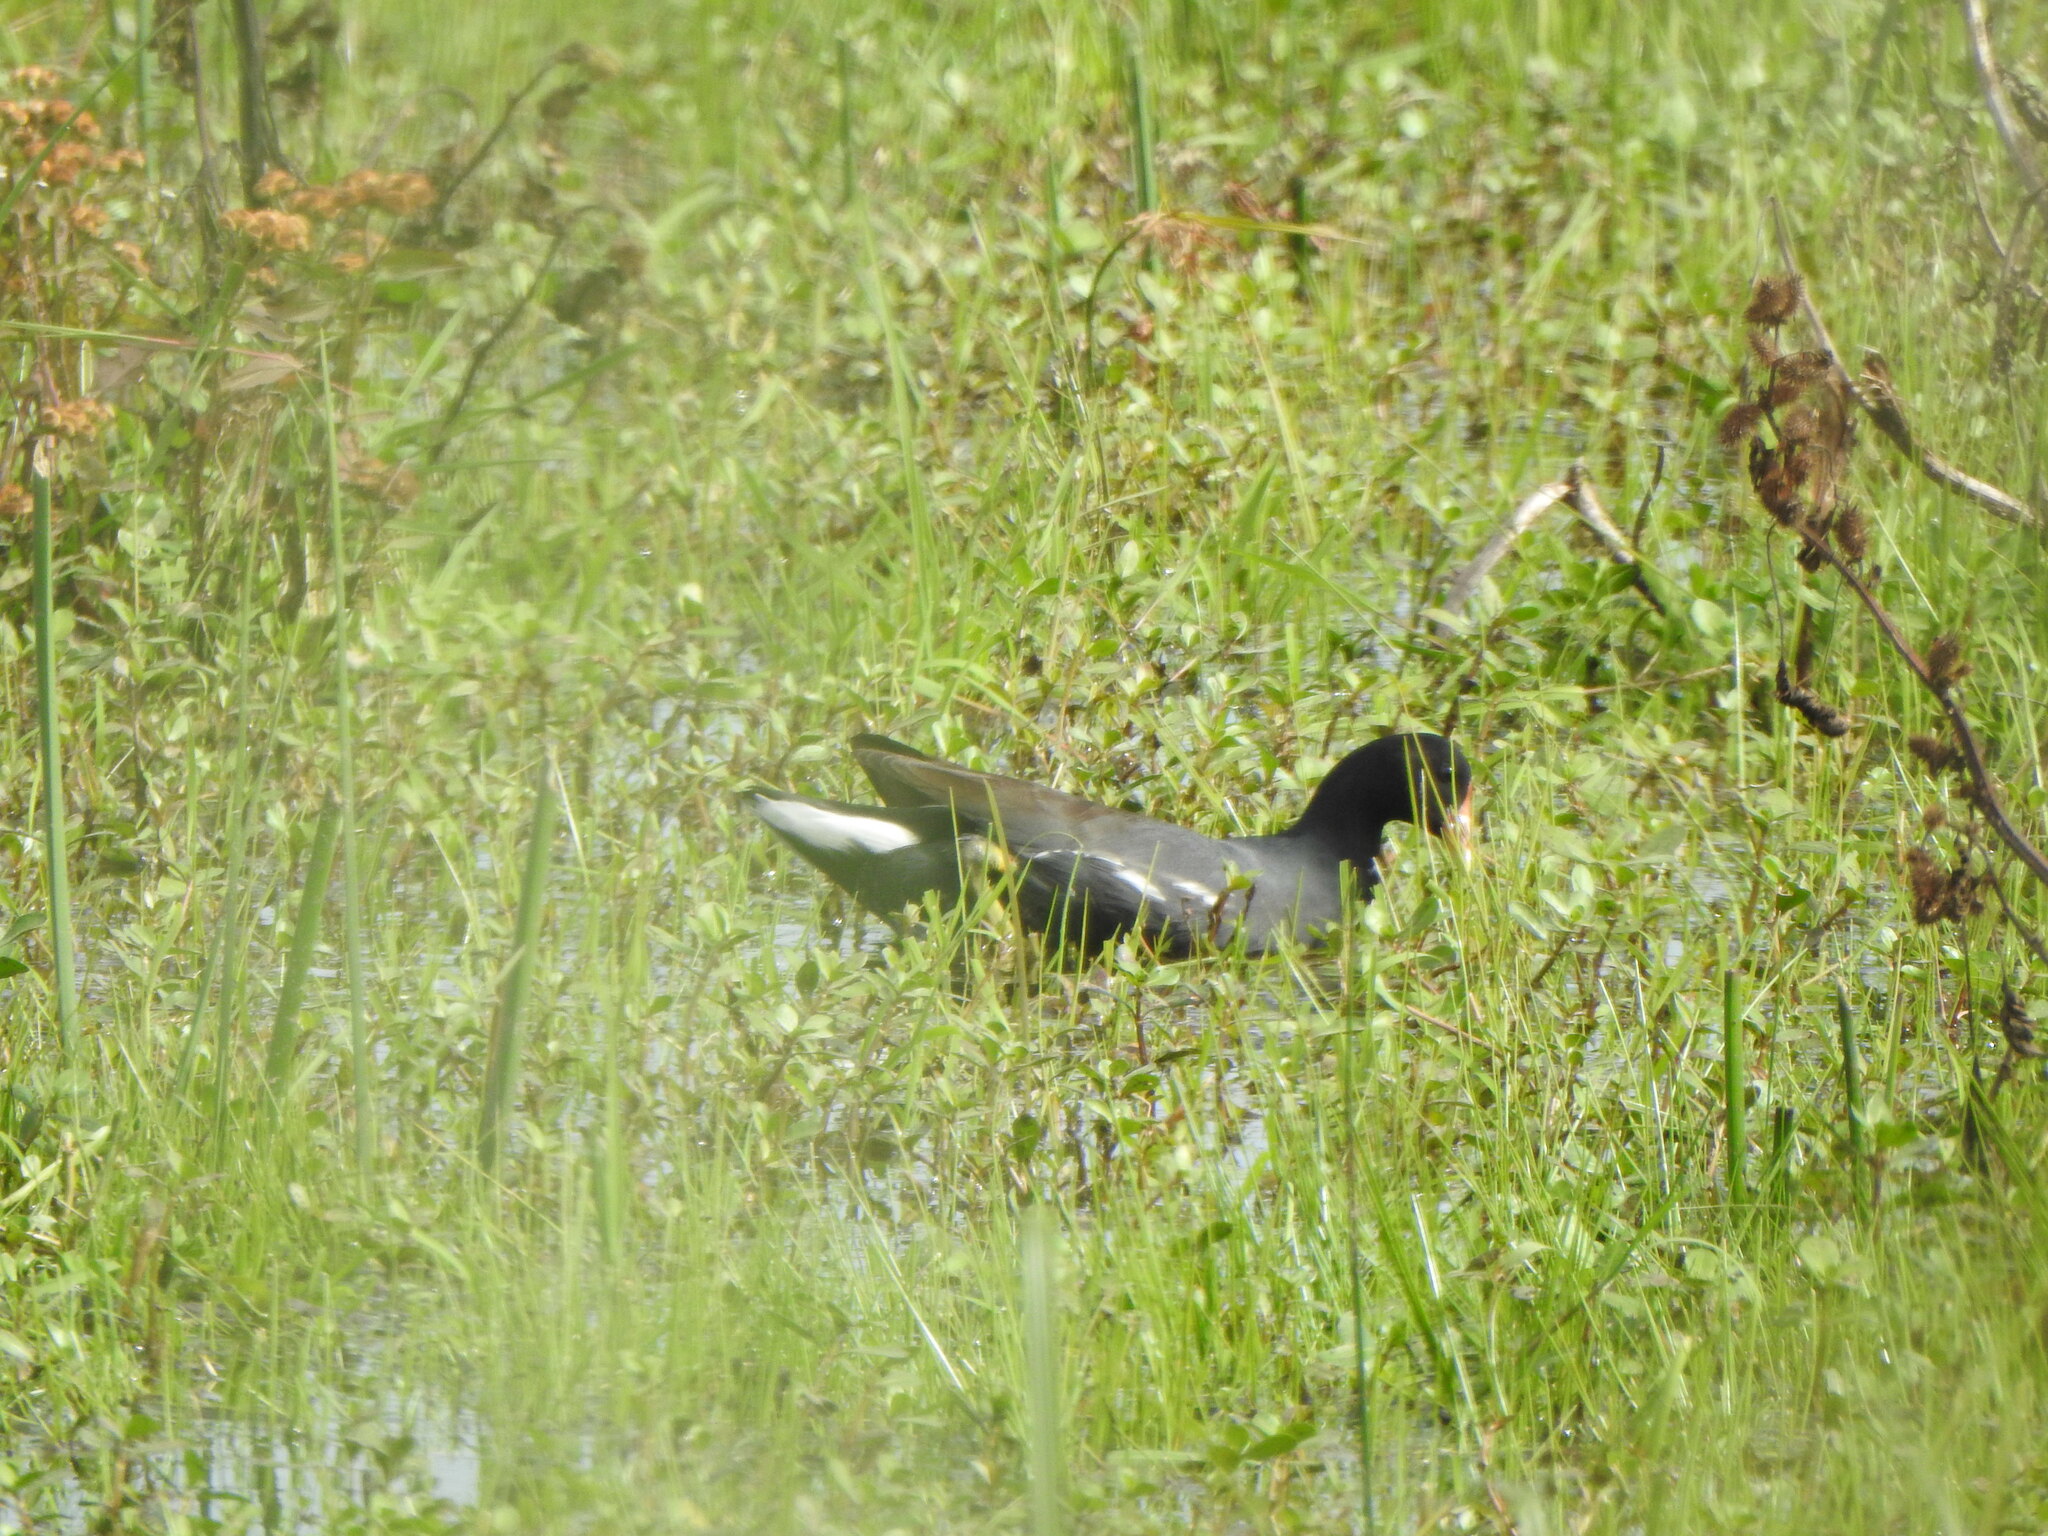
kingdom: Animalia
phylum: Chordata
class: Aves
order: Gruiformes
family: Rallidae
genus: Gallinula
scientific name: Gallinula chloropus
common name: Common moorhen
